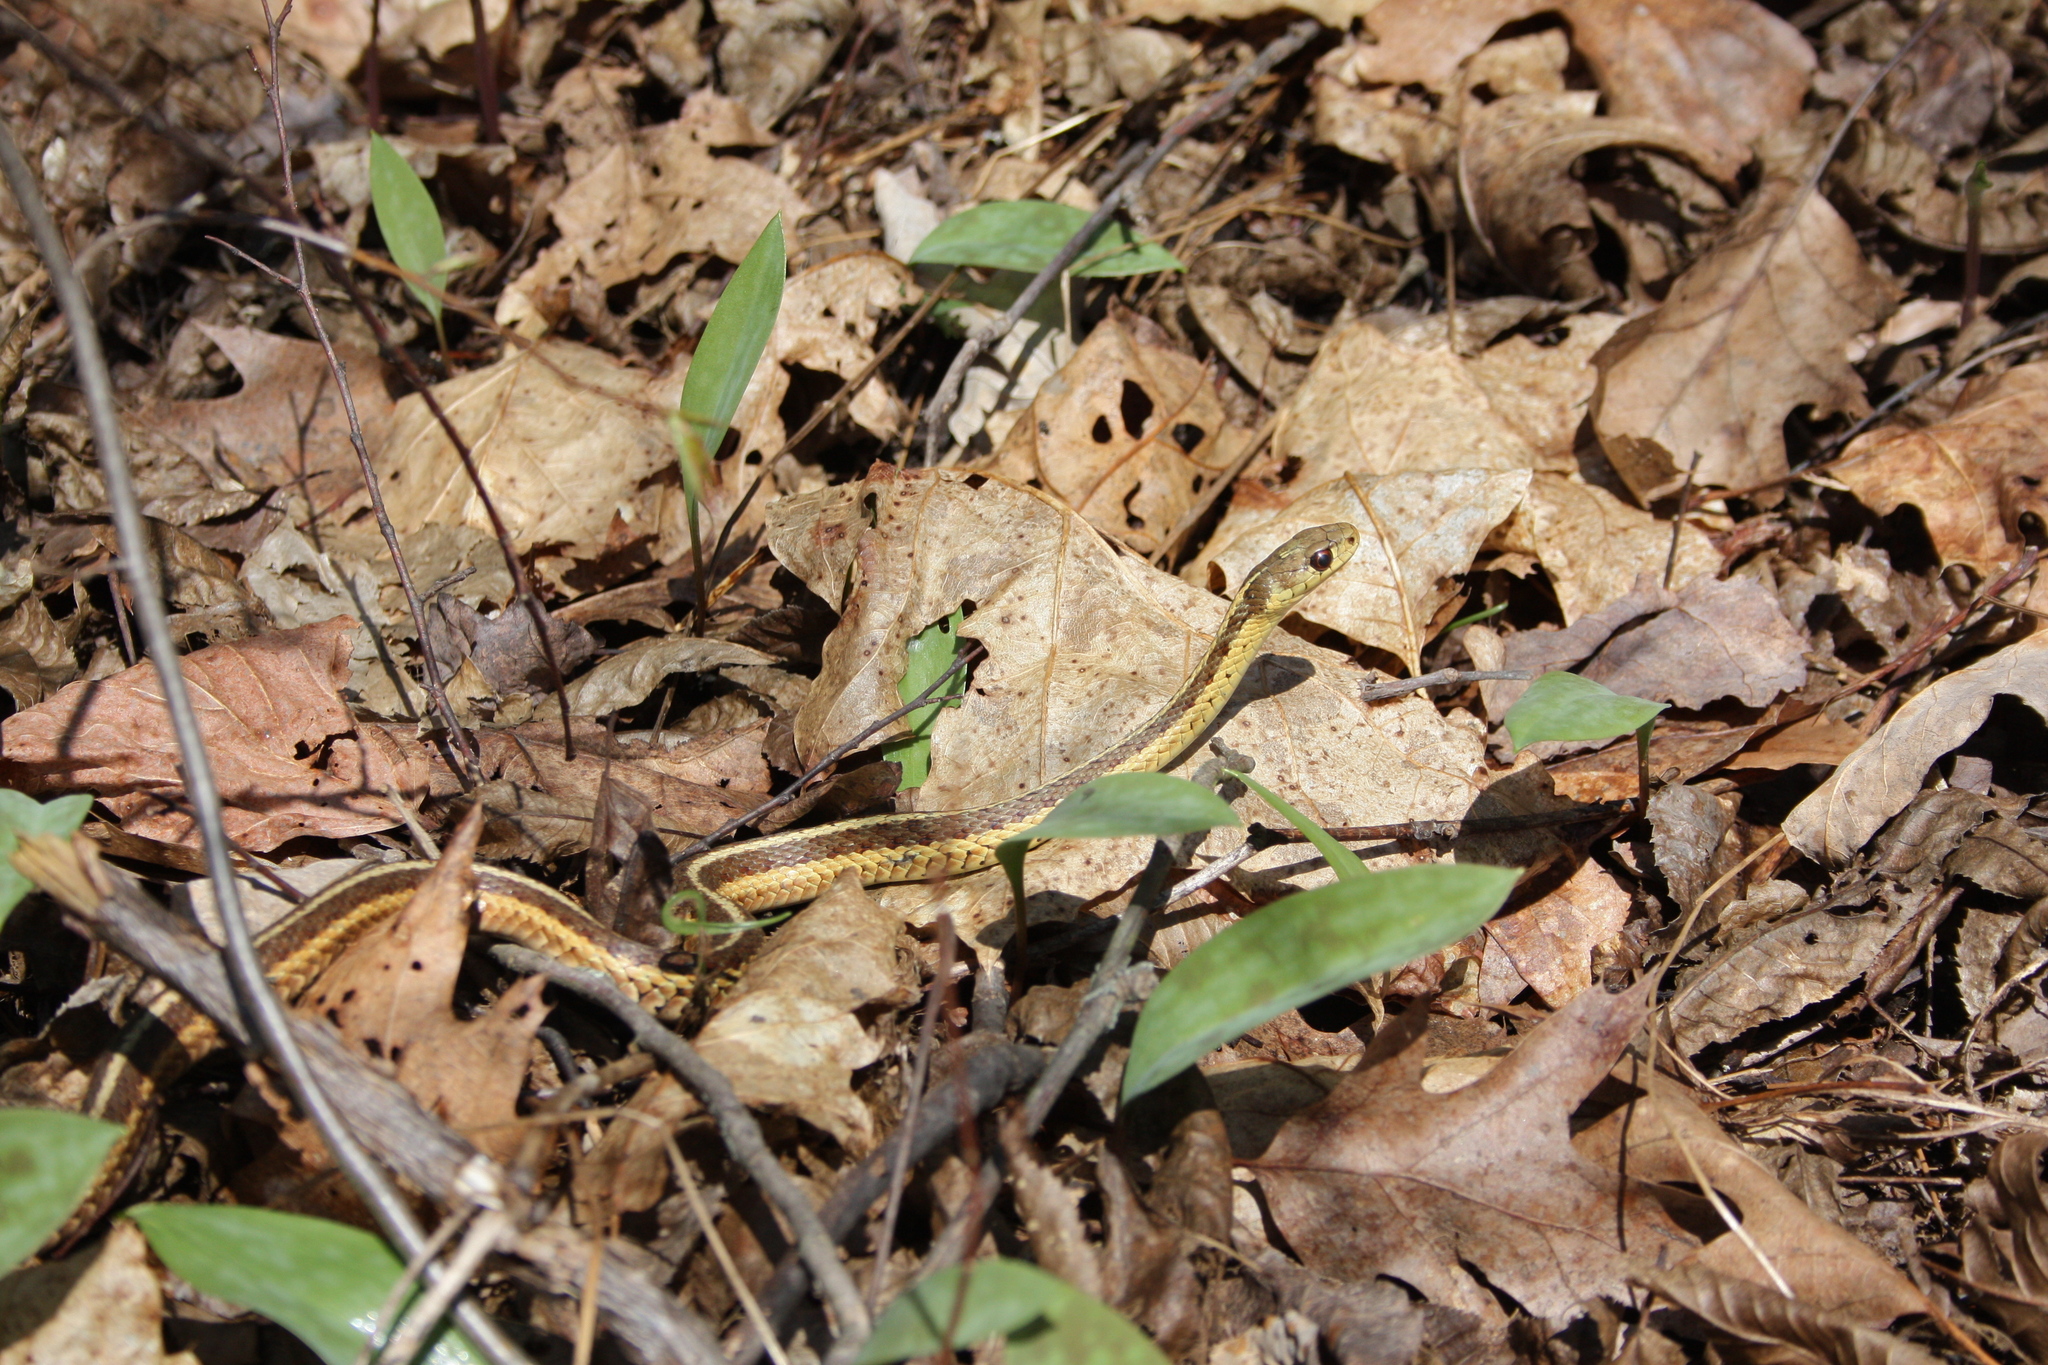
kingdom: Animalia
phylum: Chordata
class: Squamata
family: Colubridae
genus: Thamnophis
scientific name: Thamnophis sirtalis
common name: Common garter snake
